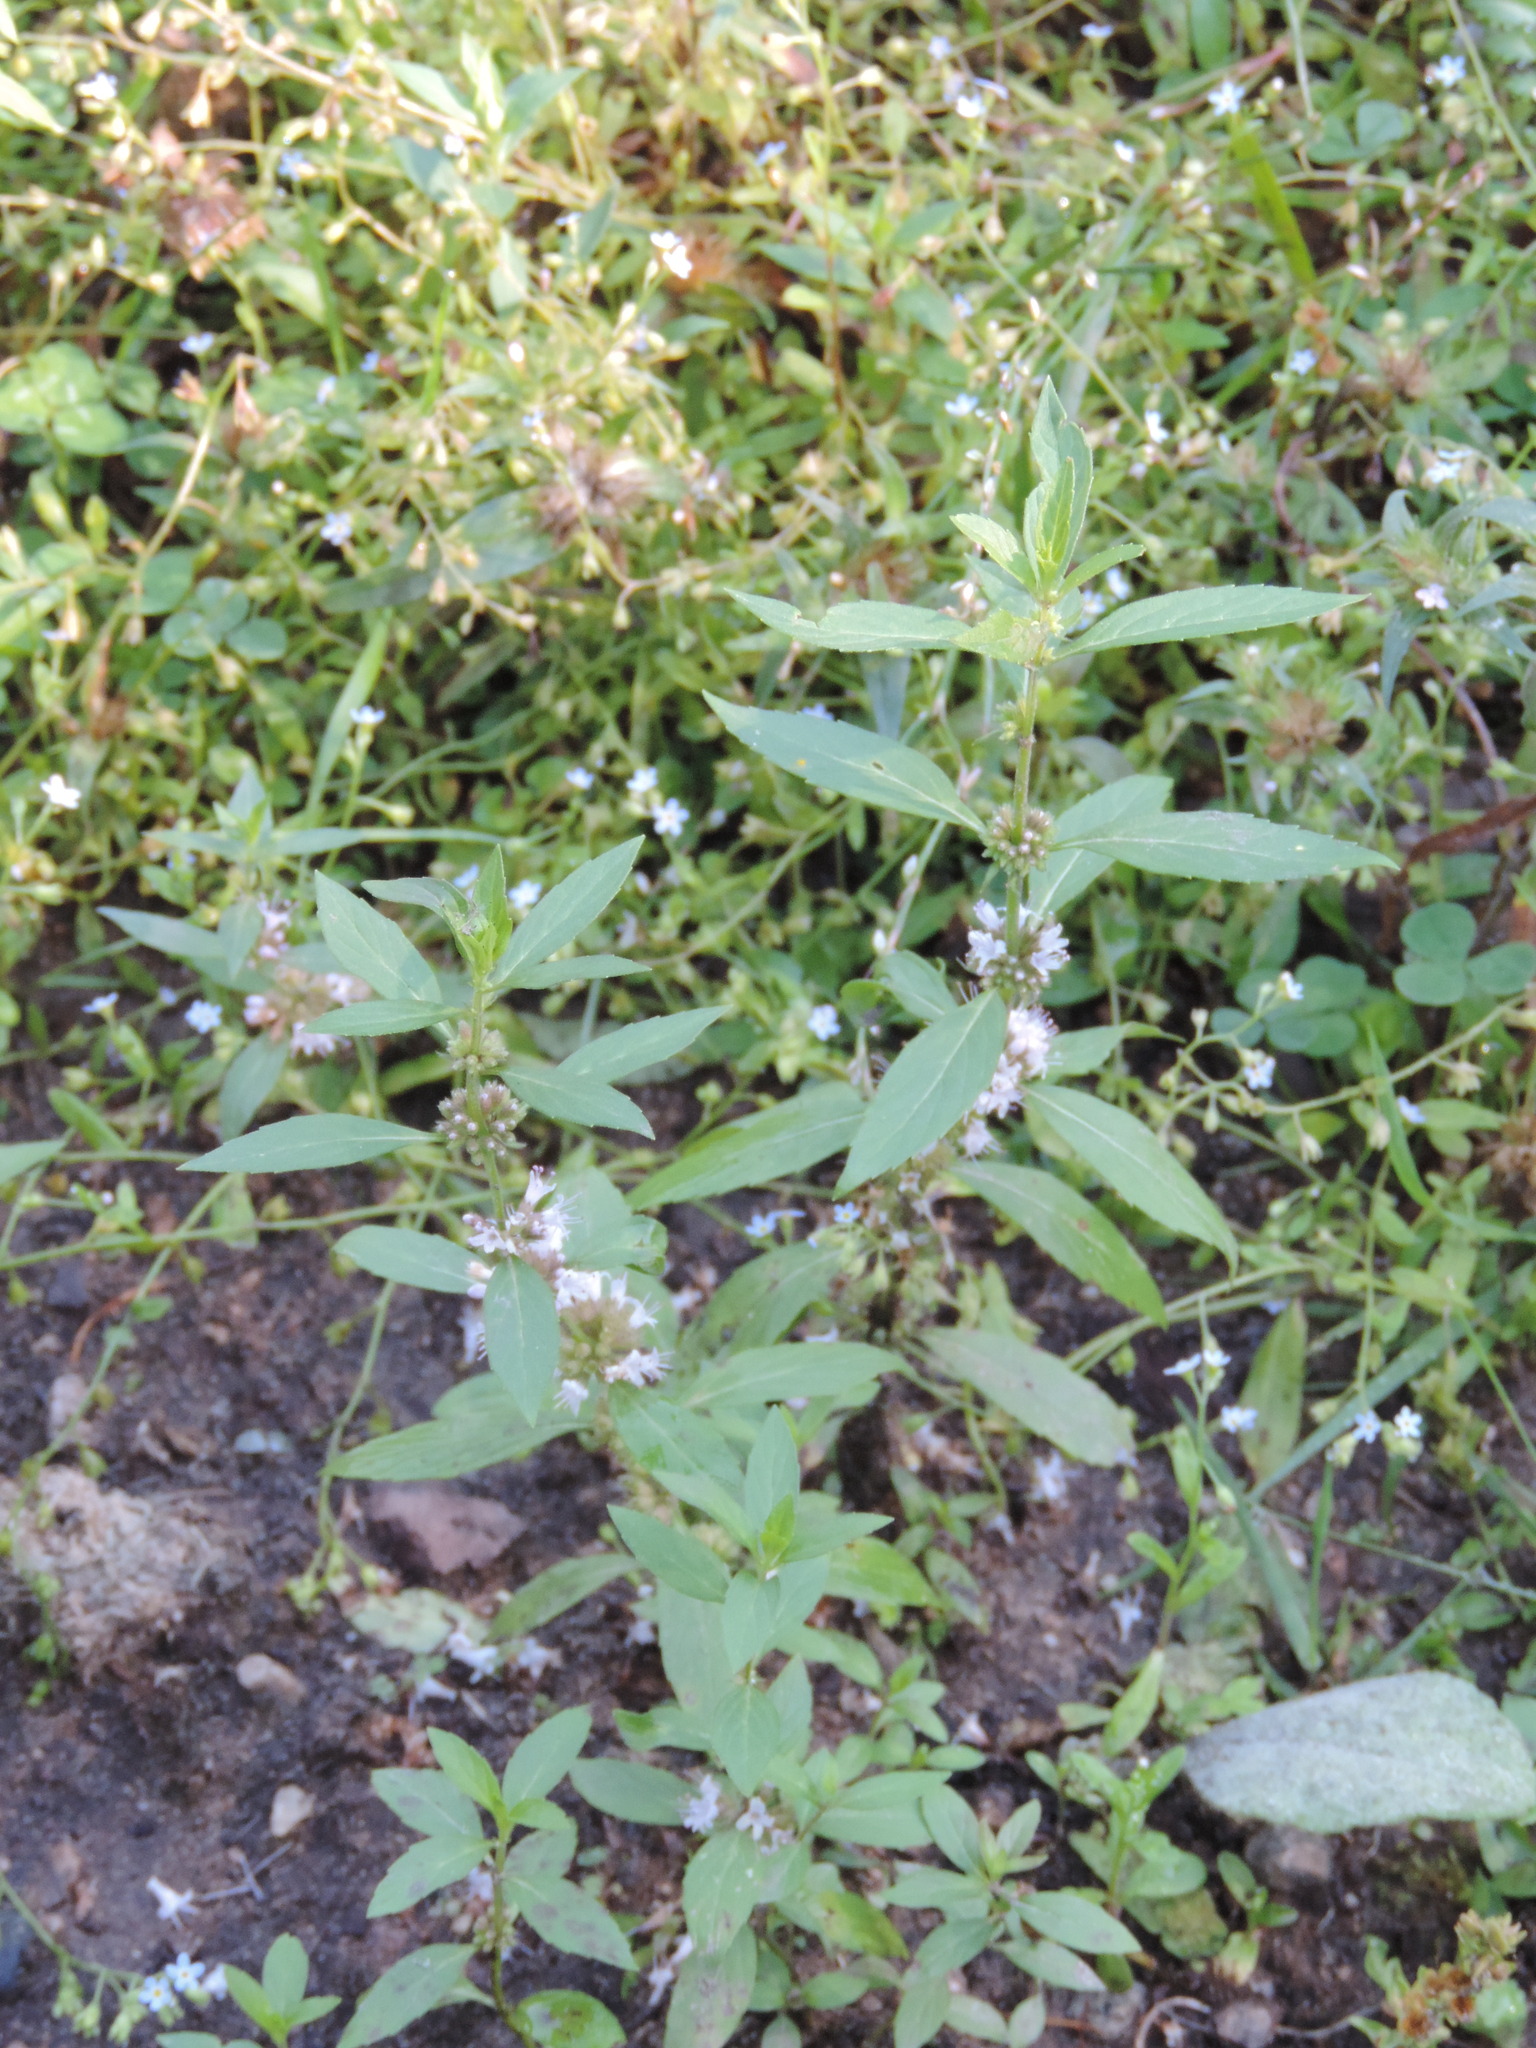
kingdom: Plantae
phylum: Tracheophyta
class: Magnoliopsida
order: Lamiales
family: Lamiaceae
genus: Mentha
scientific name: Mentha canadensis
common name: American corn mint
